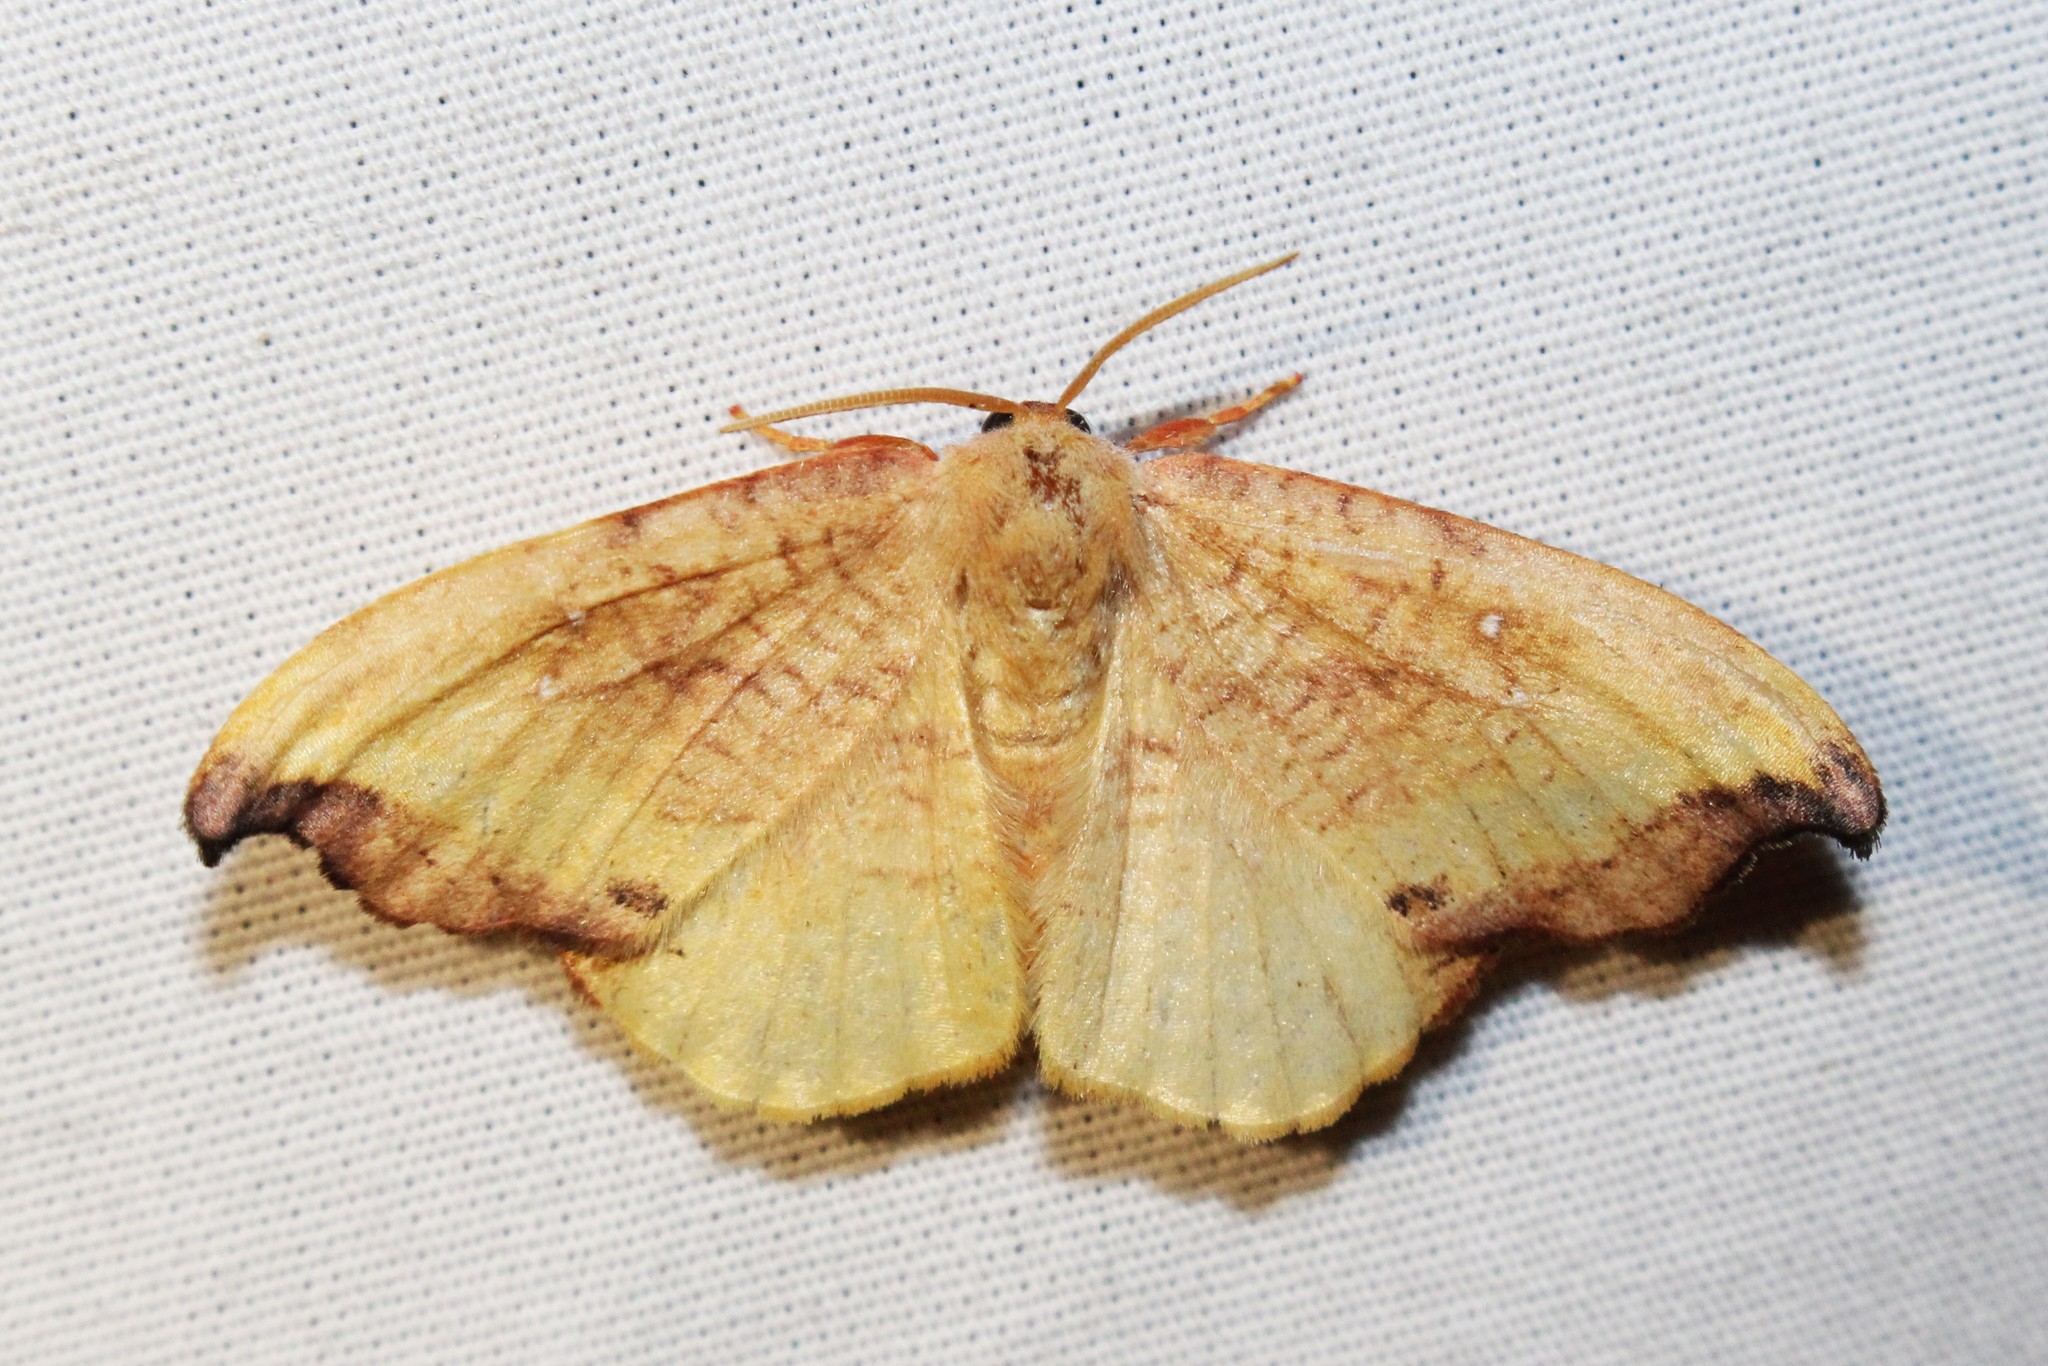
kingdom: Animalia
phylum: Arthropoda
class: Insecta
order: Lepidoptera
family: Drepanidae
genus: Oreta
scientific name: Oreta rosea
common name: Rose hooktip
